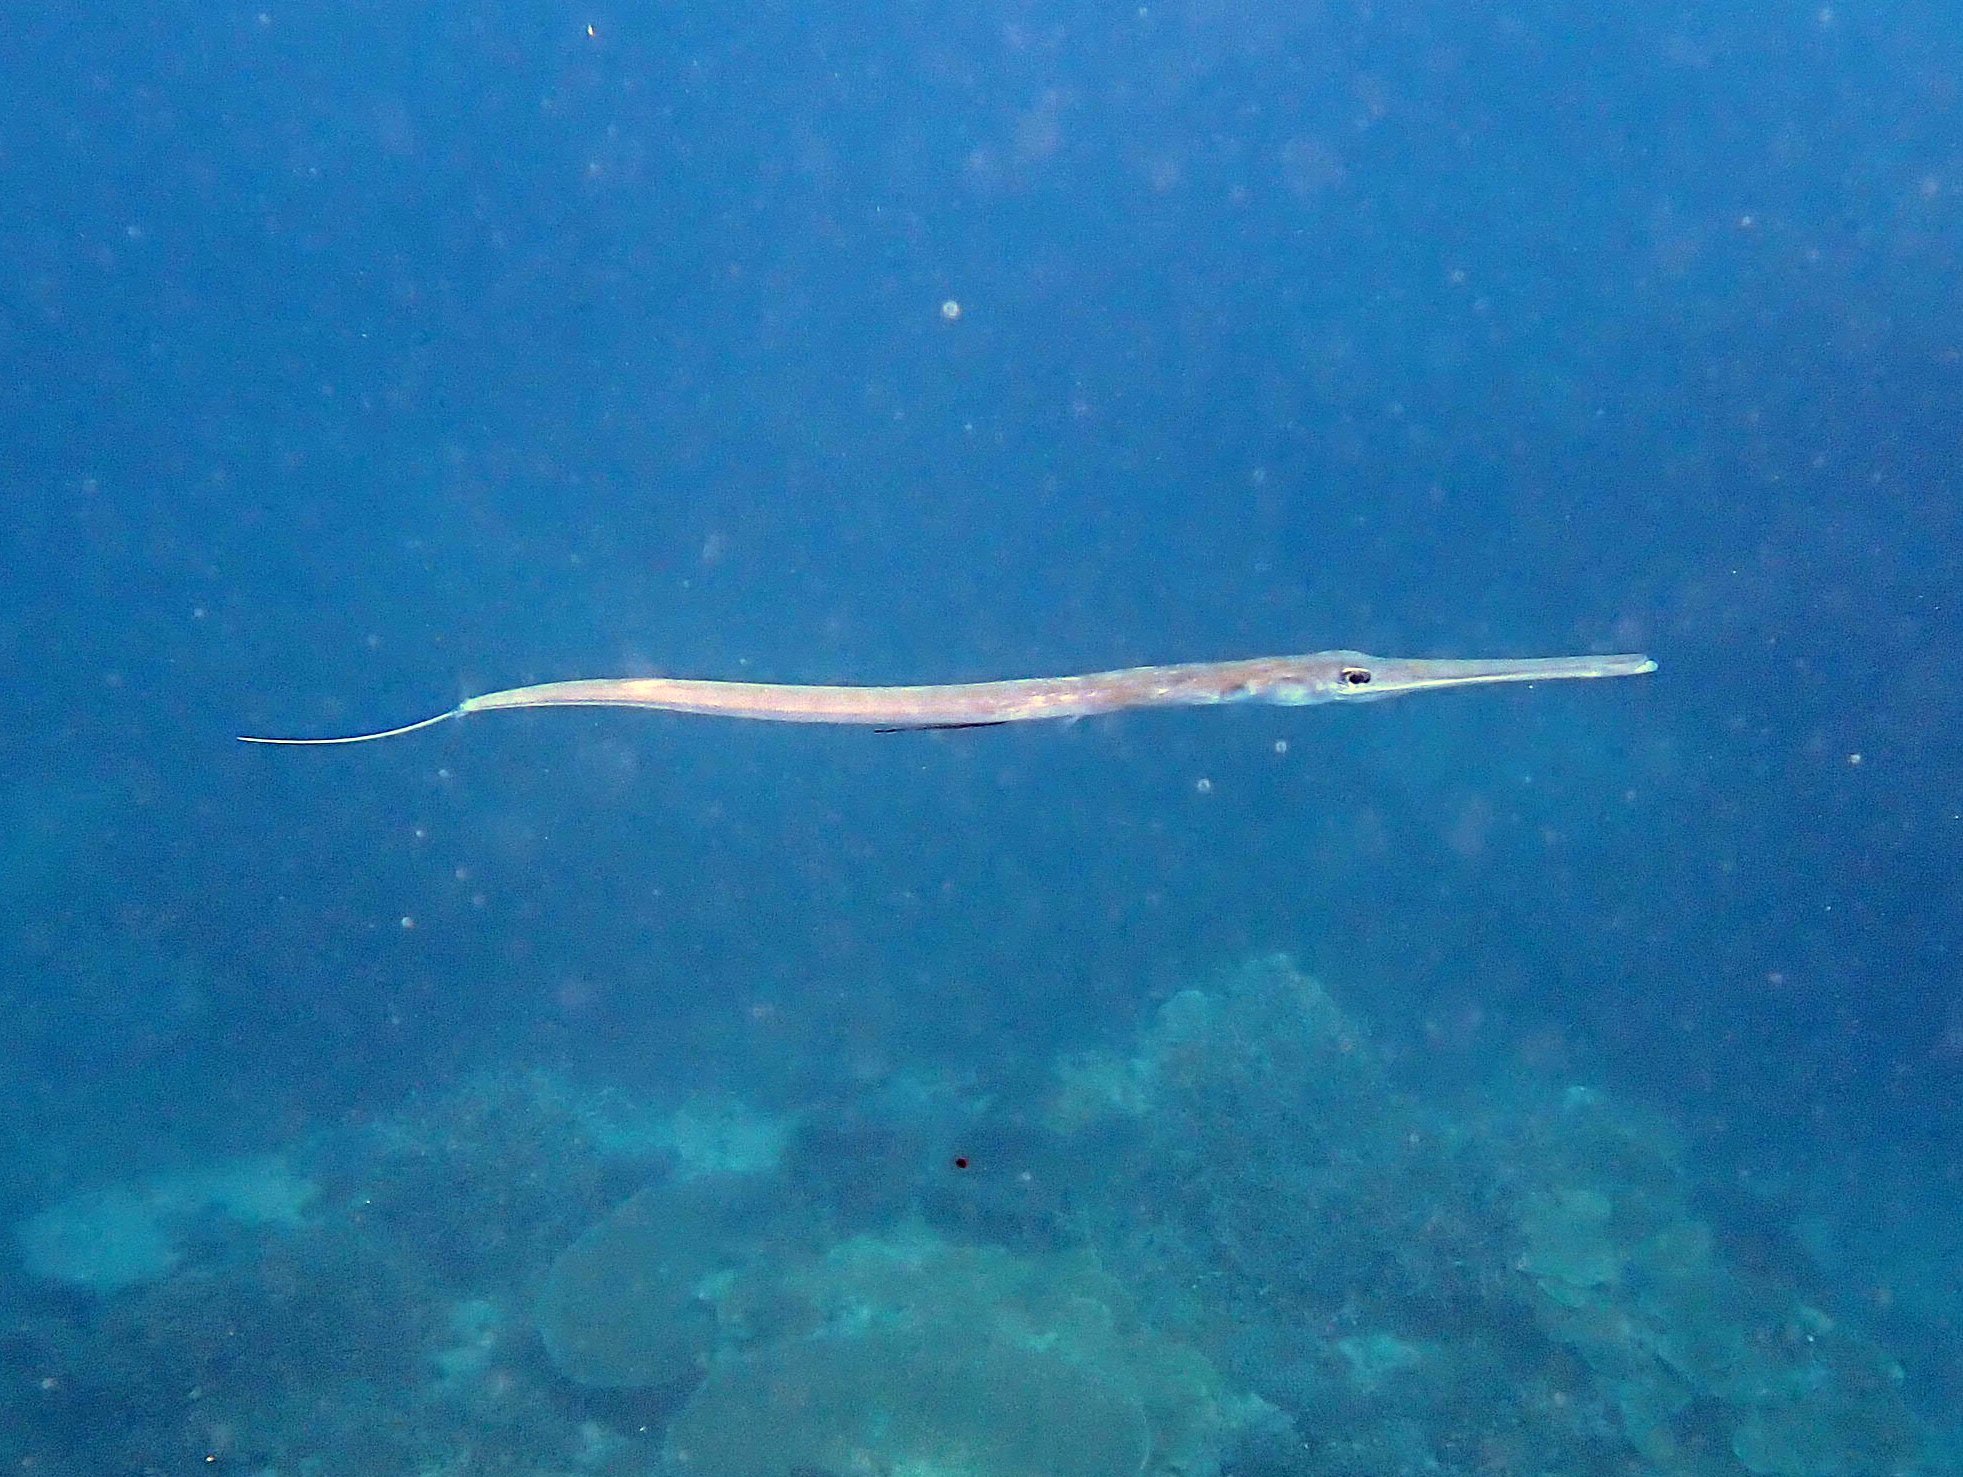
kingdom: Animalia
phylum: Chordata
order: Syngnathiformes
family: Fistulariidae
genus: Fistularia
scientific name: Fistularia commersonii
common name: Bluespotted cornetfish
